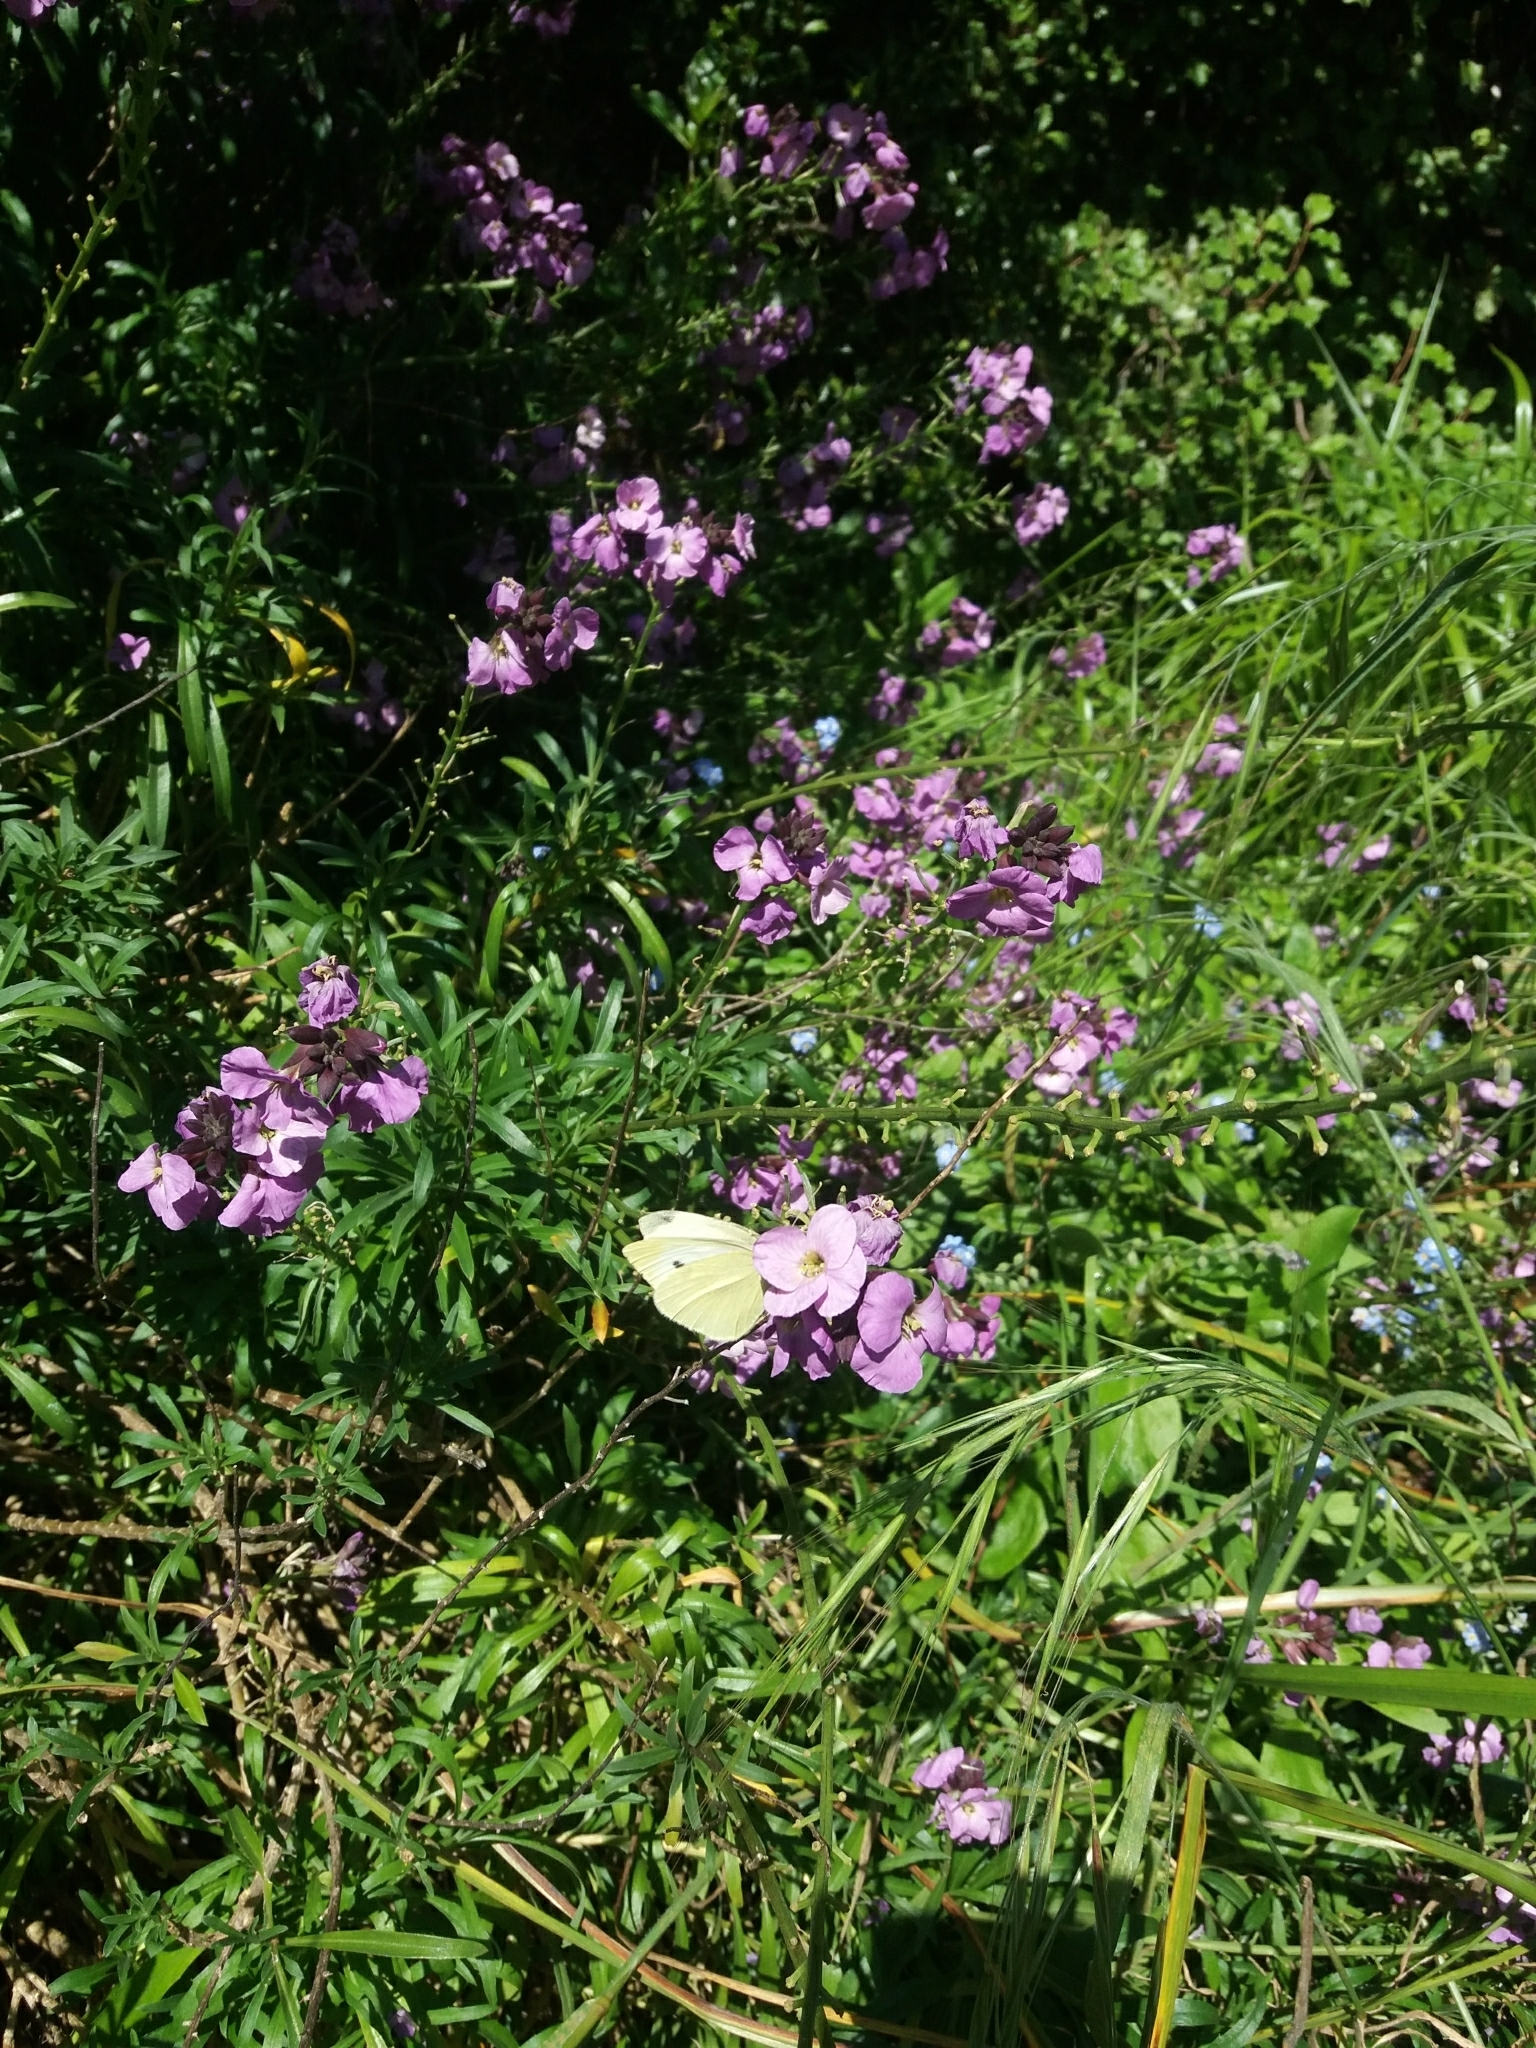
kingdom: Animalia
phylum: Arthropoda
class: Insecta
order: Lepidoptera
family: Pieridae
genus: Pieris
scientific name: Pieris rapae
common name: Small white
